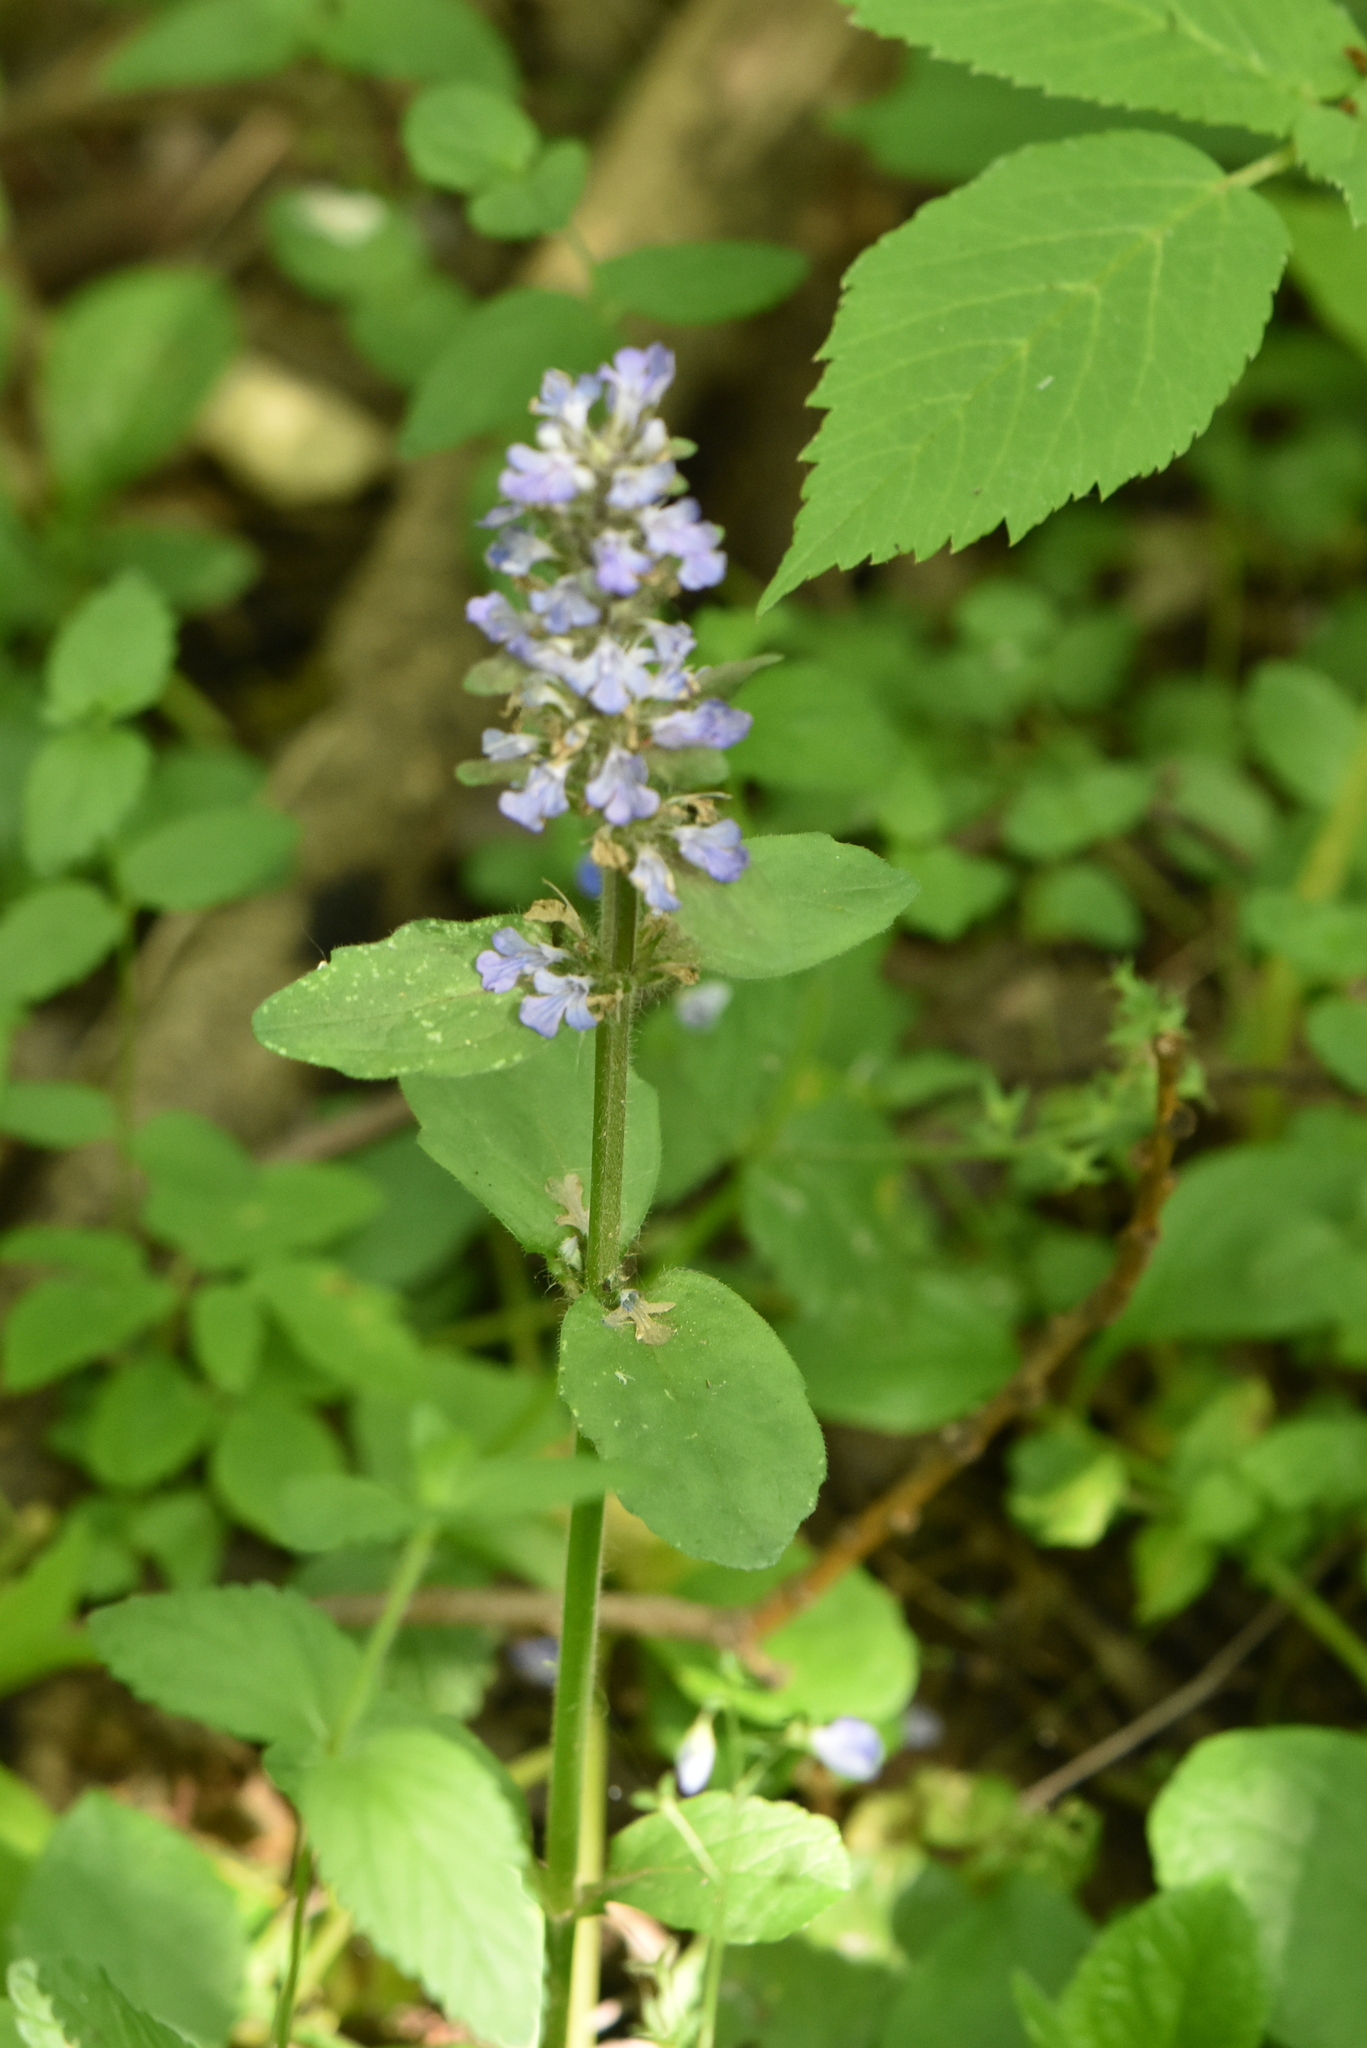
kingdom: Plantae
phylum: Tracheophyta
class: Magnoliopsida
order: Lamiales
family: Lamiaceae
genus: Ajuga
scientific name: Ajuga reptans
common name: Bugle
